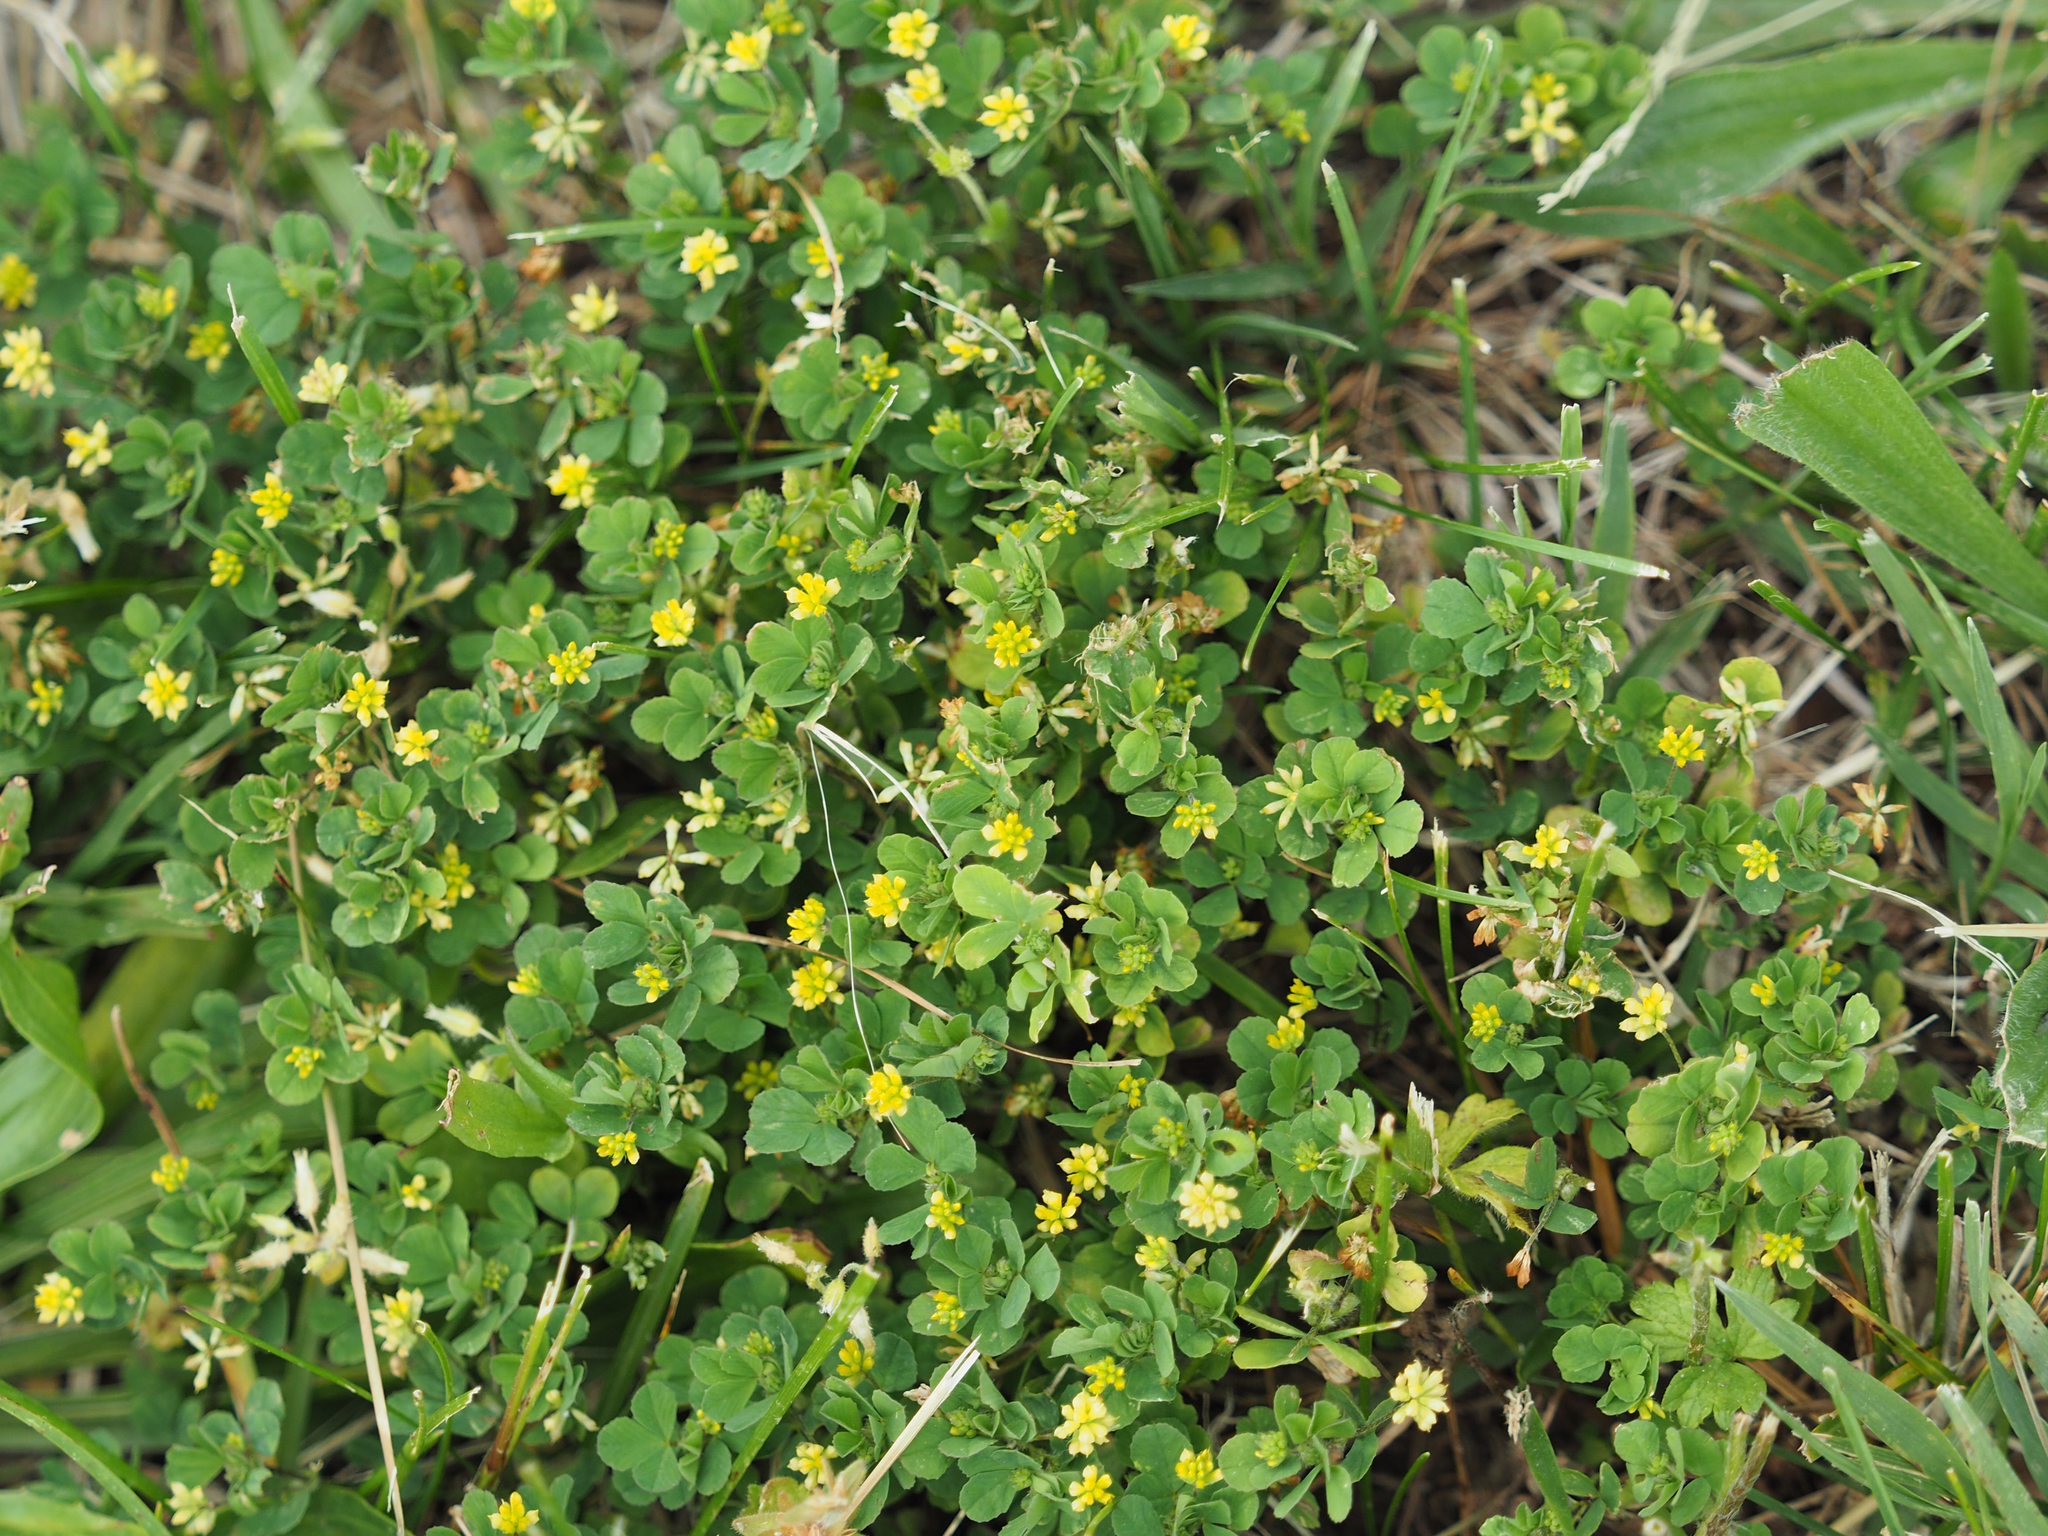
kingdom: Plantae
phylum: Tracheophyta
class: Magnoliopsida
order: Fabales
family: Fabaceae
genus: Trifolium
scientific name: Trifolium dubium
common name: Suckling clover
